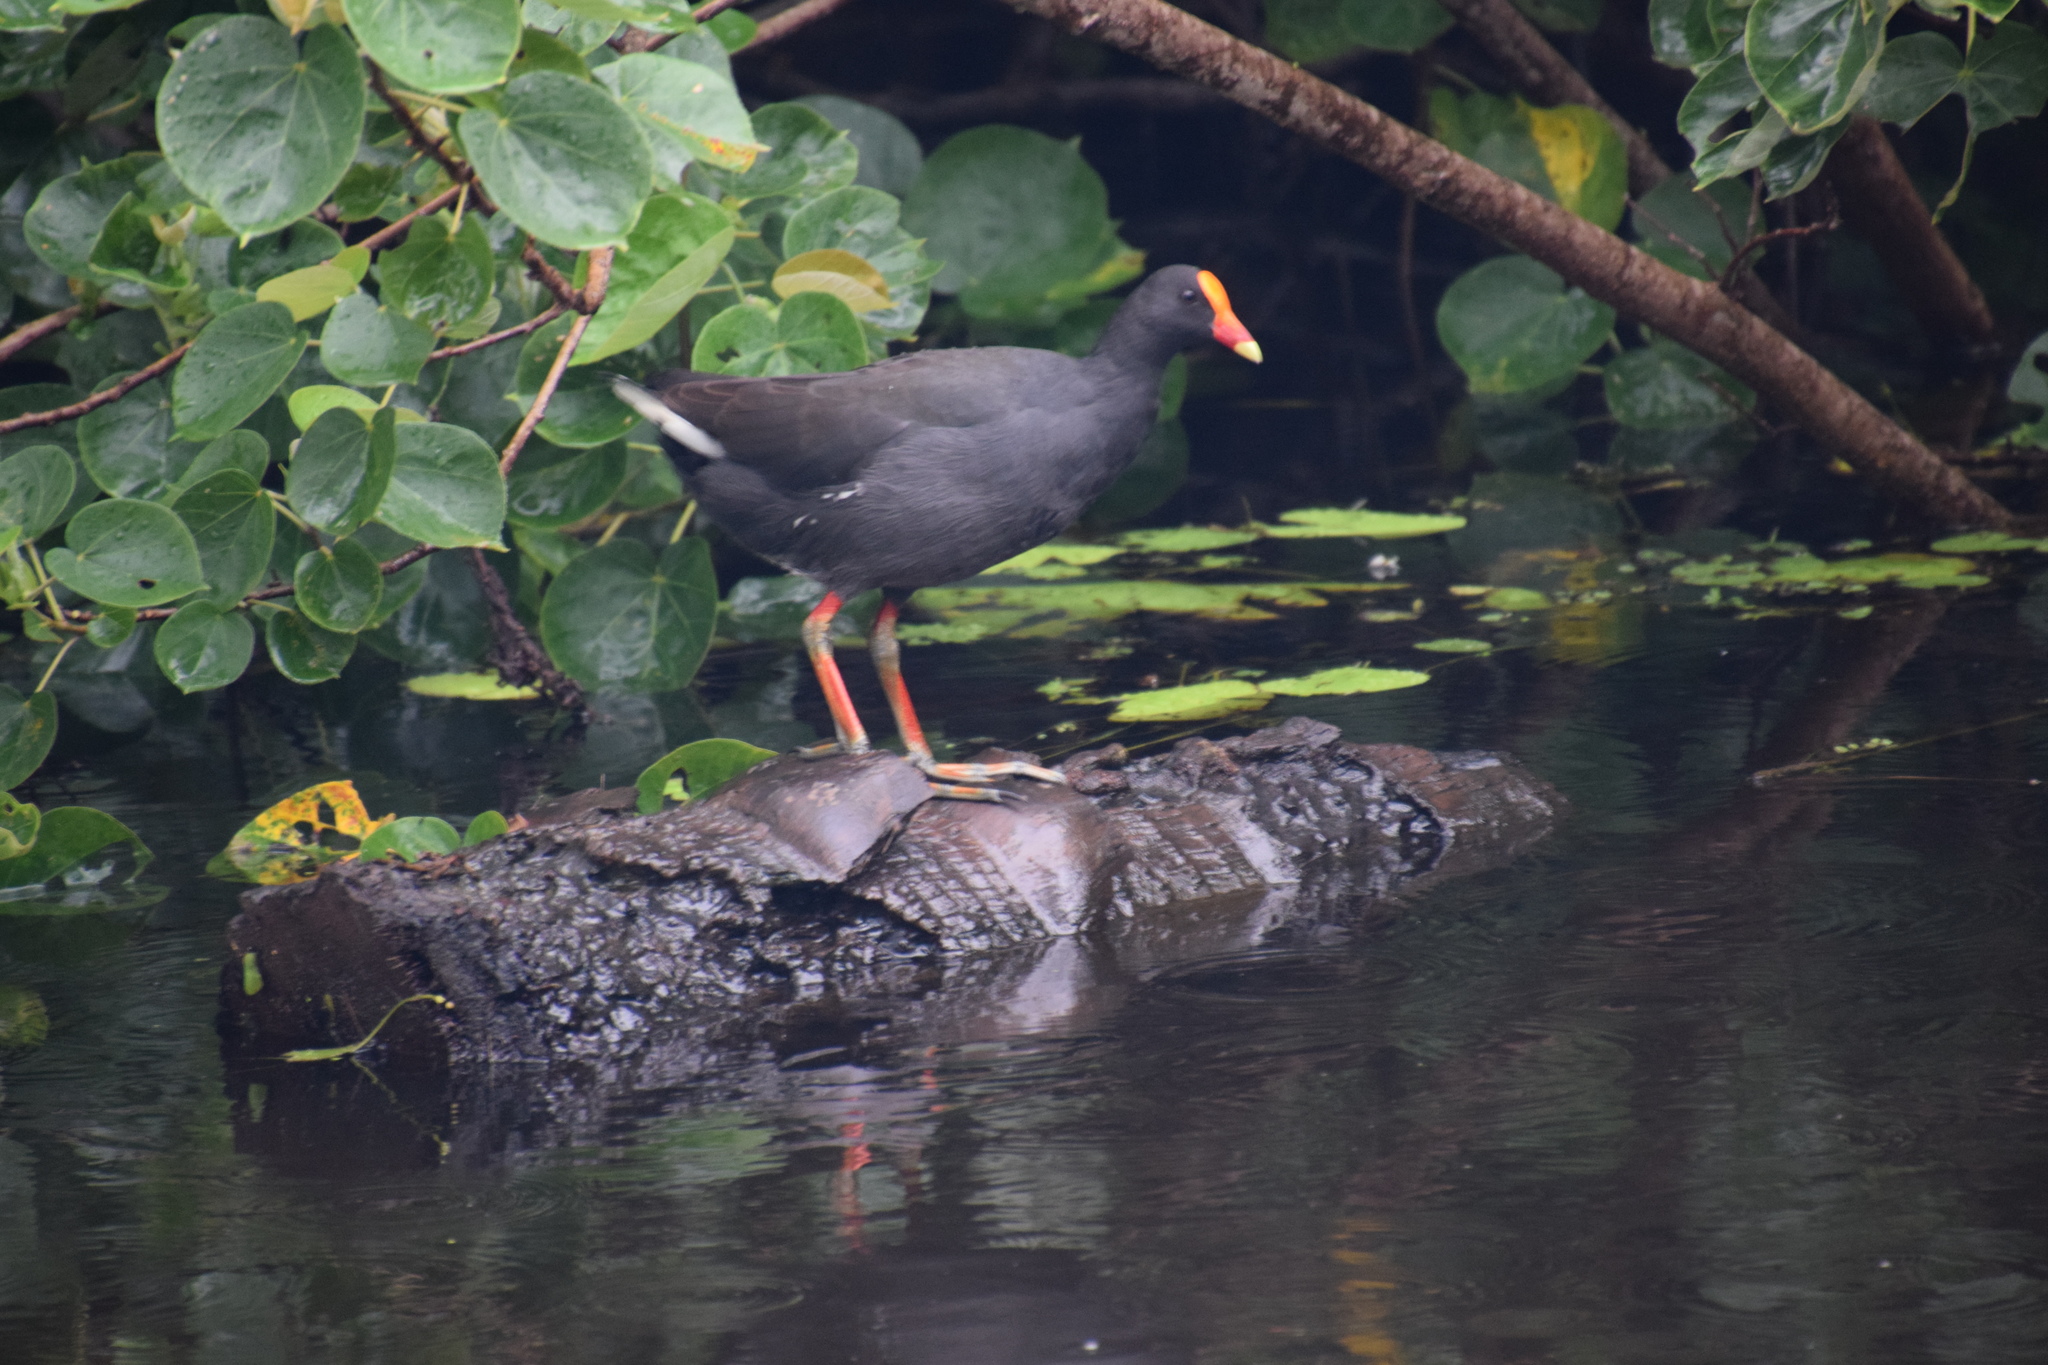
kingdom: Animalia
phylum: Chordata
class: Aves
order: Gruiformes
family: Rallidae
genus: Gallinula
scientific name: Gallinula tenebrosa
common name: Dusky moorhen
